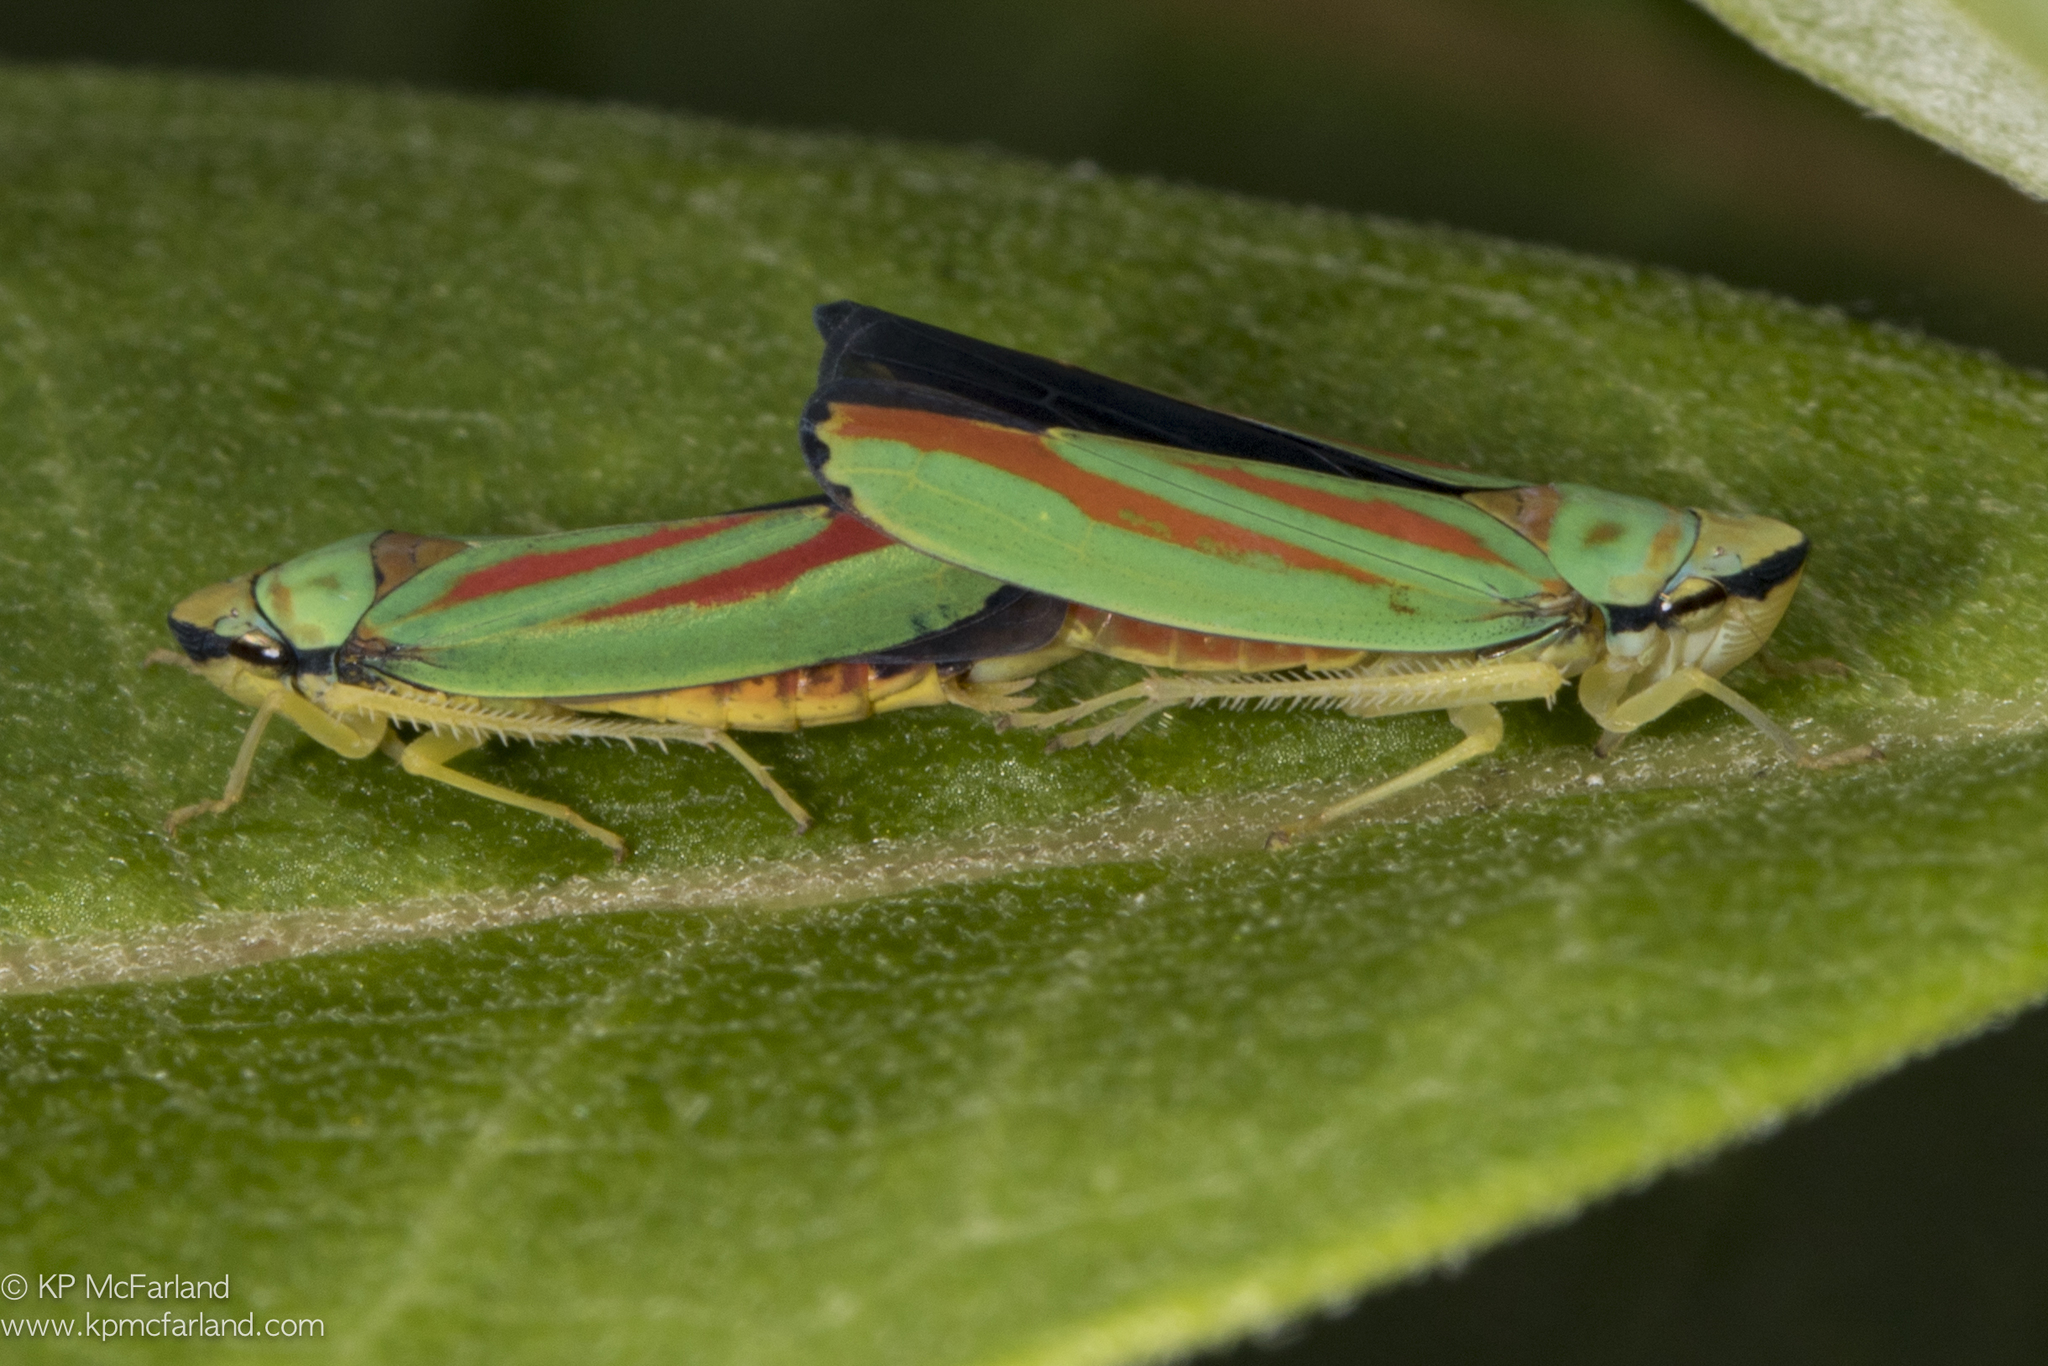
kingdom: Animalia
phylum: Arthropoda
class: Insecta
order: Hemiptera
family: Cicadellidae
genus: Graphocephala
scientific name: Graphocephala fennahi
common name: Rhododendron leafhopper
